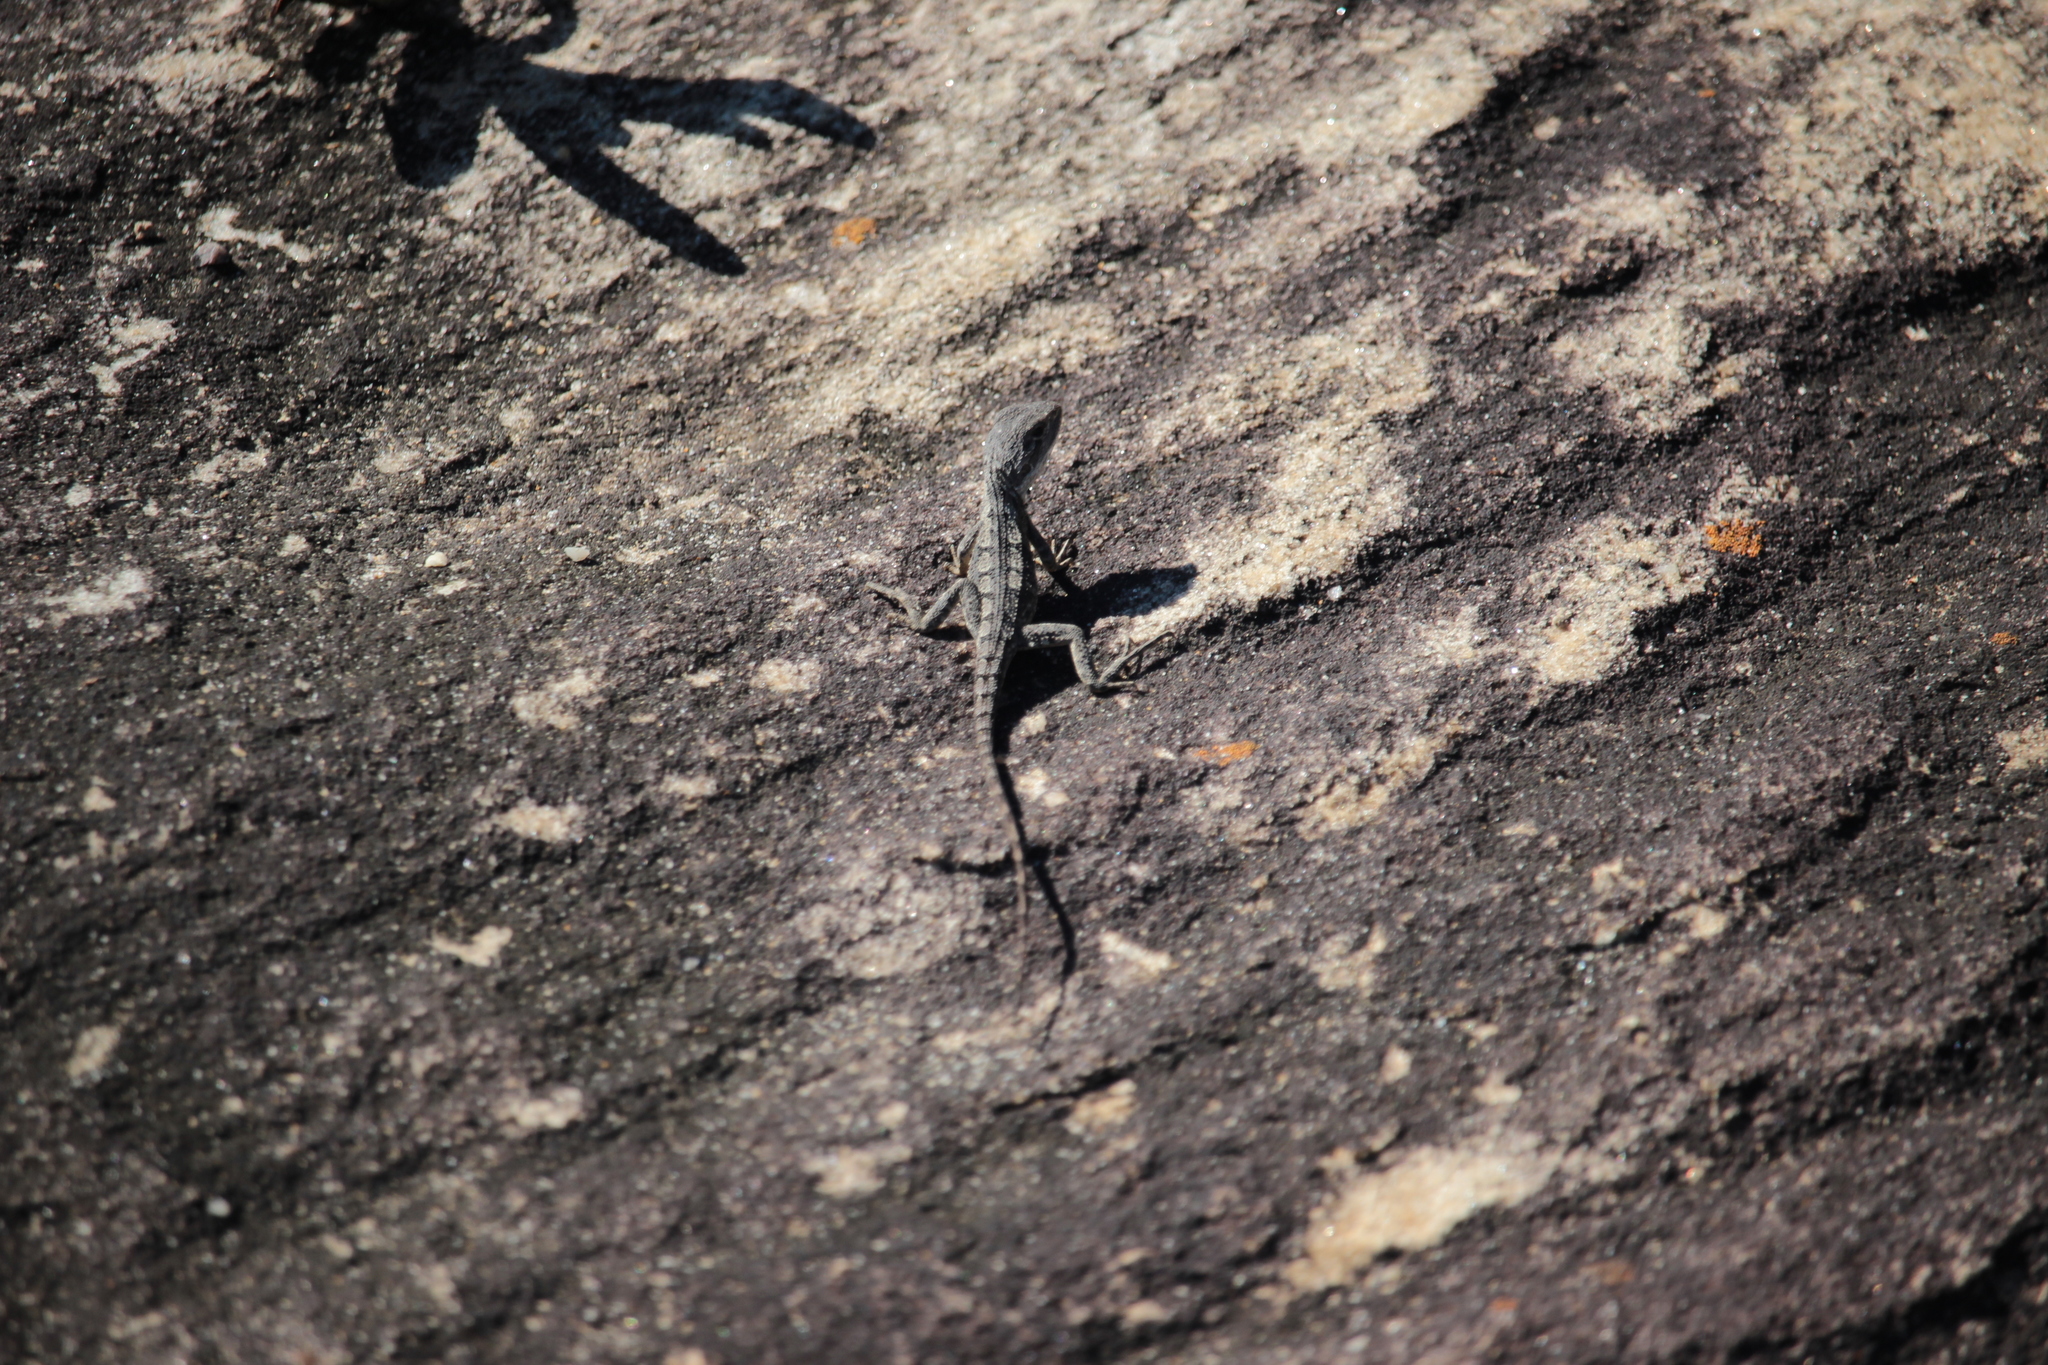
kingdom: Animalia
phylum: Chordata
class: Squamata
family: Agamidae
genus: Amphibolurus
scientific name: Amphibolurus muricatus
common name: Jacky lizard
